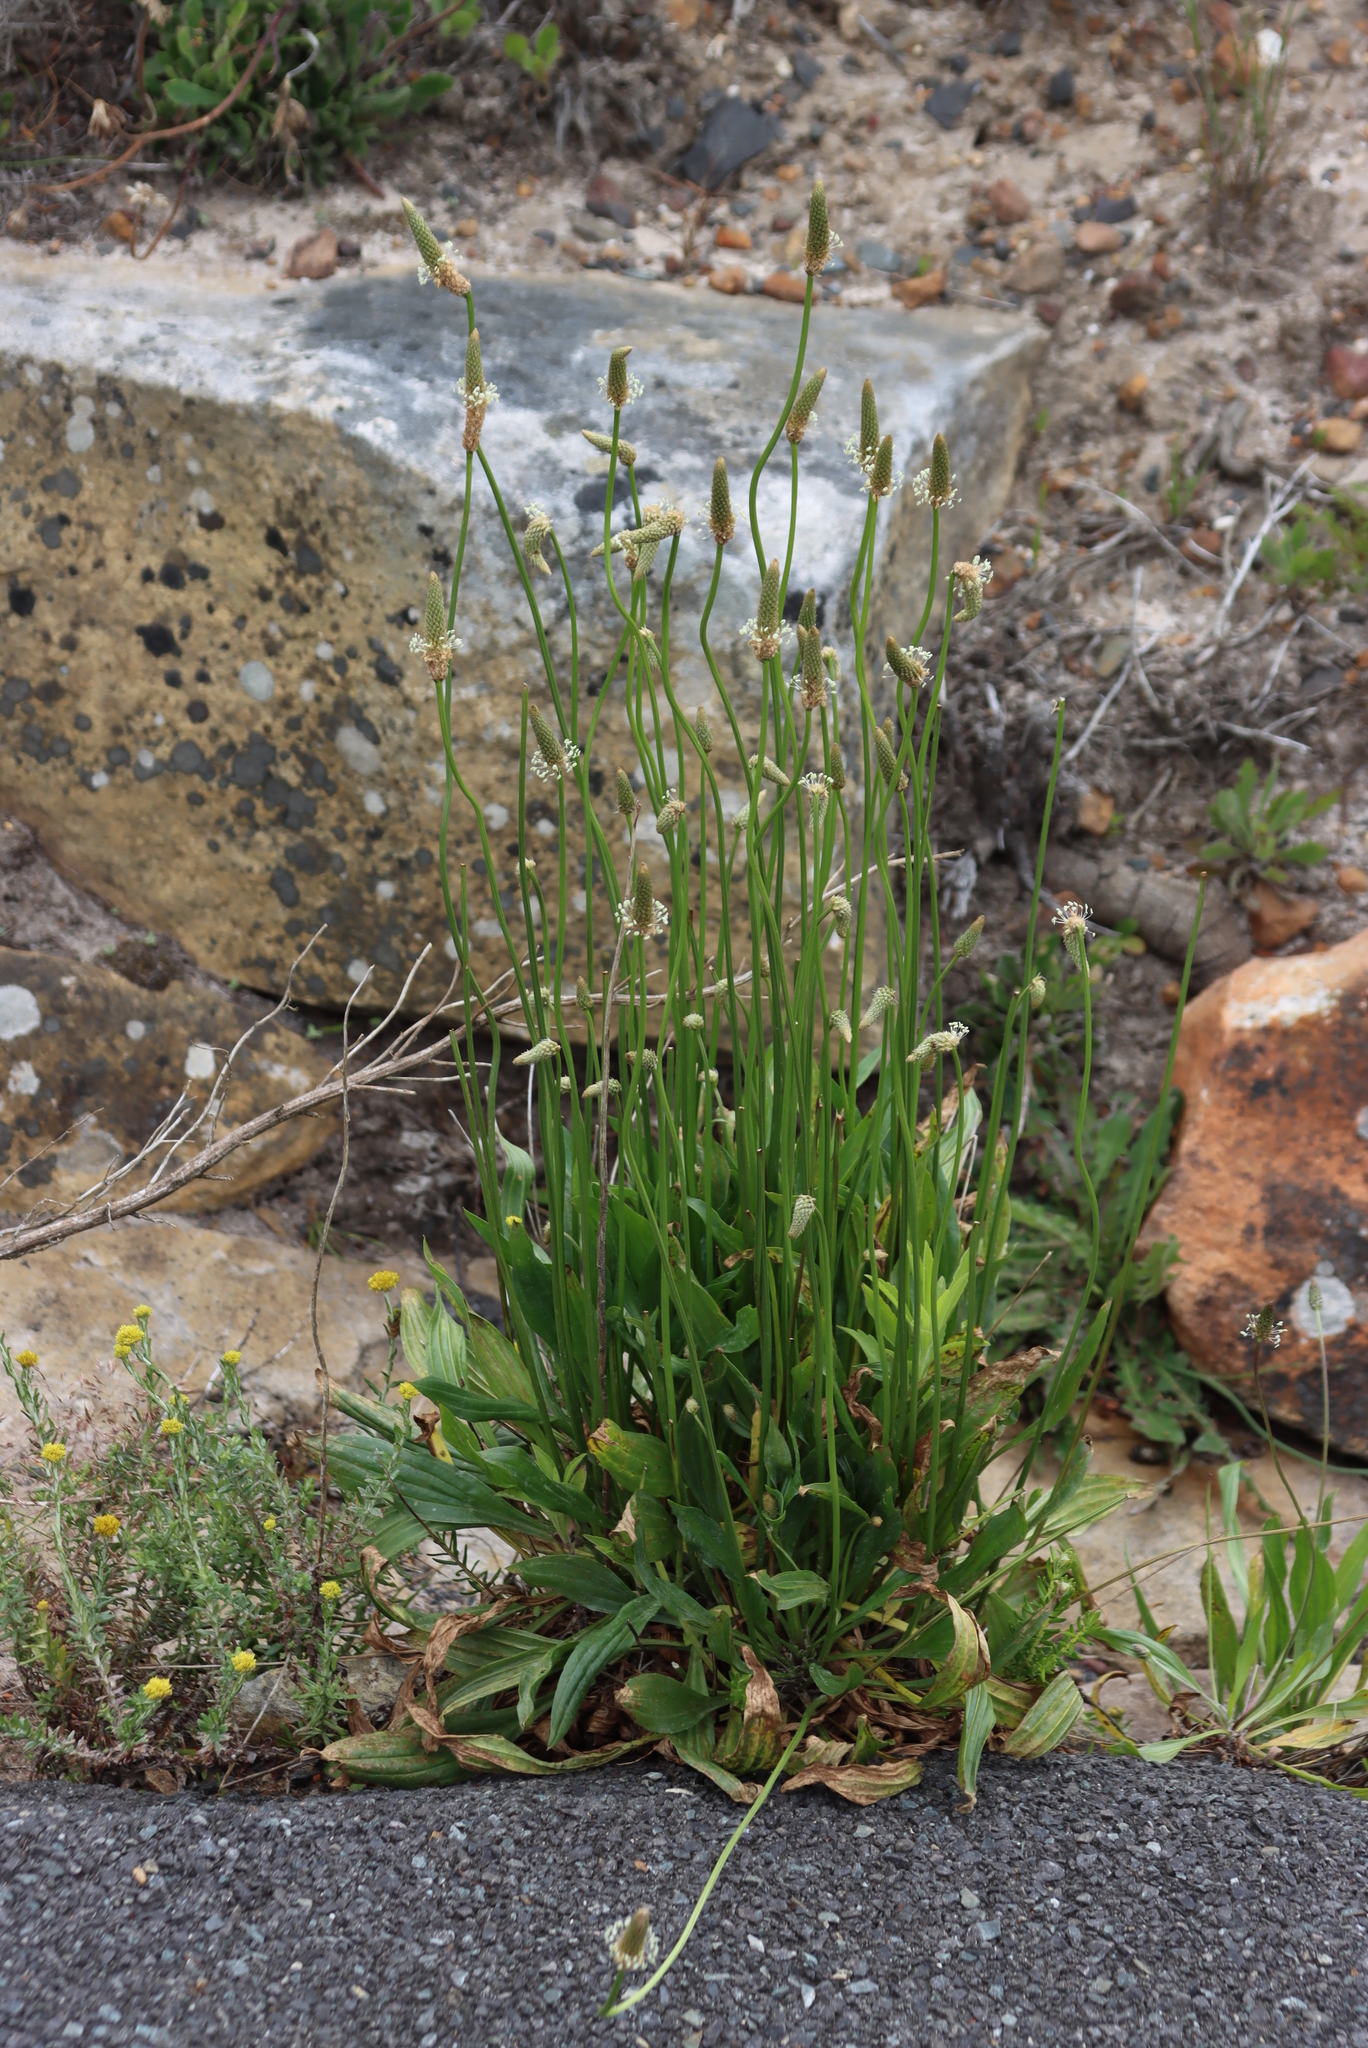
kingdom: Plantae
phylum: Tracheophyta
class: Magnoliopsida
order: Lamiales
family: Plantaginaceae
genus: Plantago
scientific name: Plantago lanceolata
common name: Ribwort plantain
